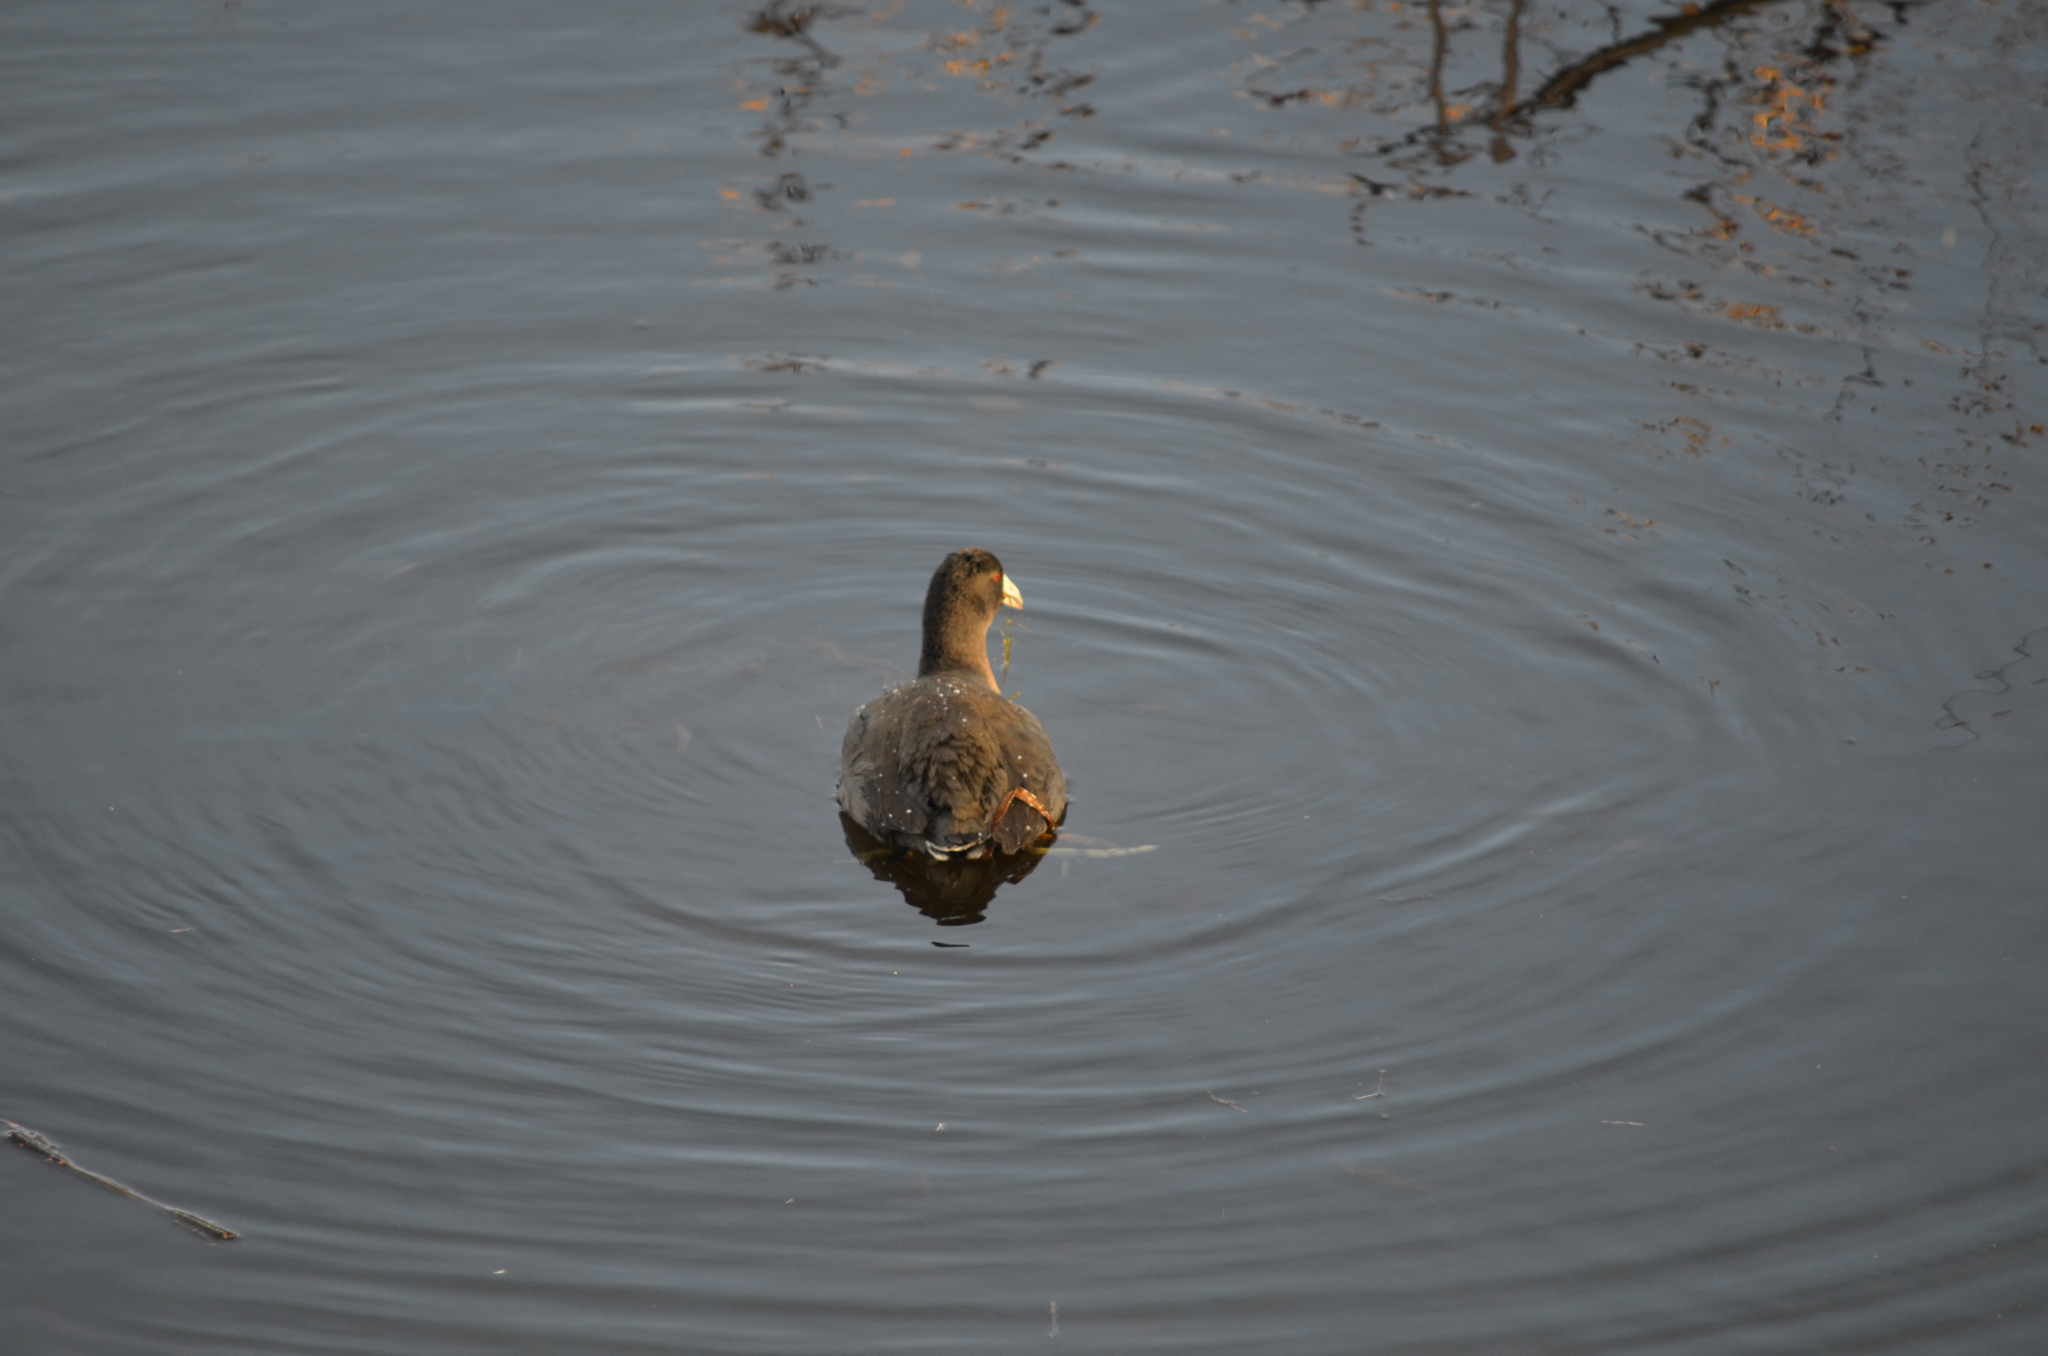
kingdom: Animalia
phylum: Chordata
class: Aves
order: Gruiformes
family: Rallidae
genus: Fulica
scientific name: Fulica americana
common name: American coot
